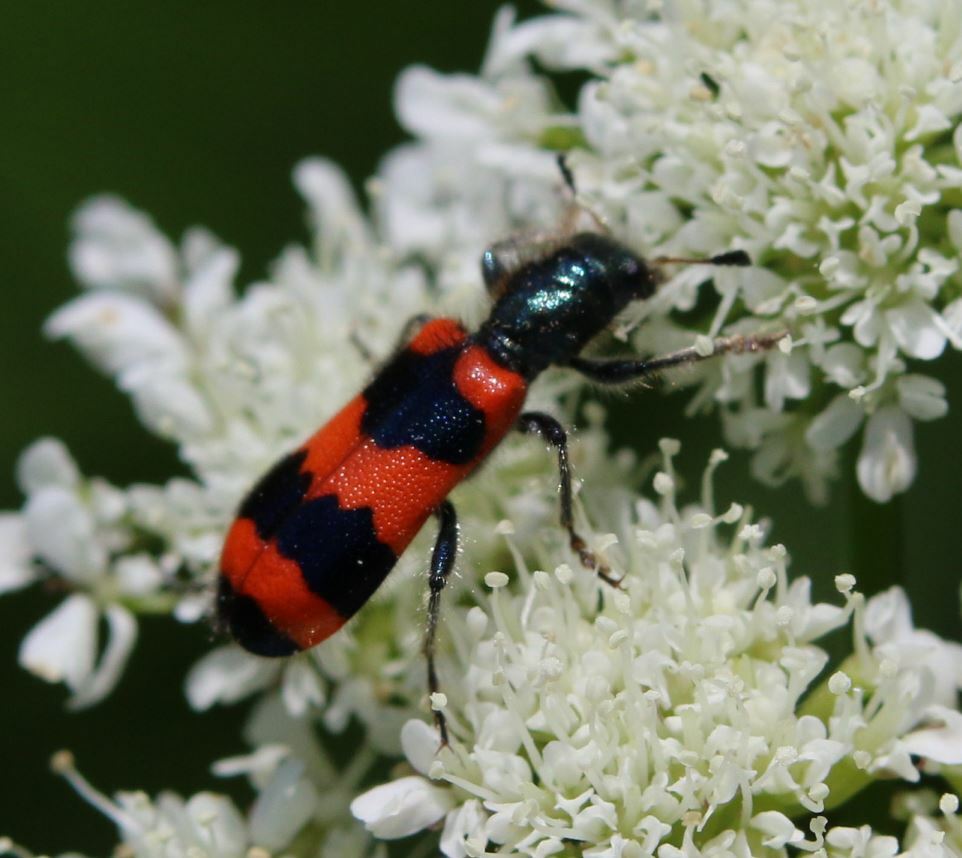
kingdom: Animalia
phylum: Arthropoda
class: Insecta
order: Coleoptera
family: Cleridae
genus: Trichodes
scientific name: Trichodes apiarius
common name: Bee-eating beetle
